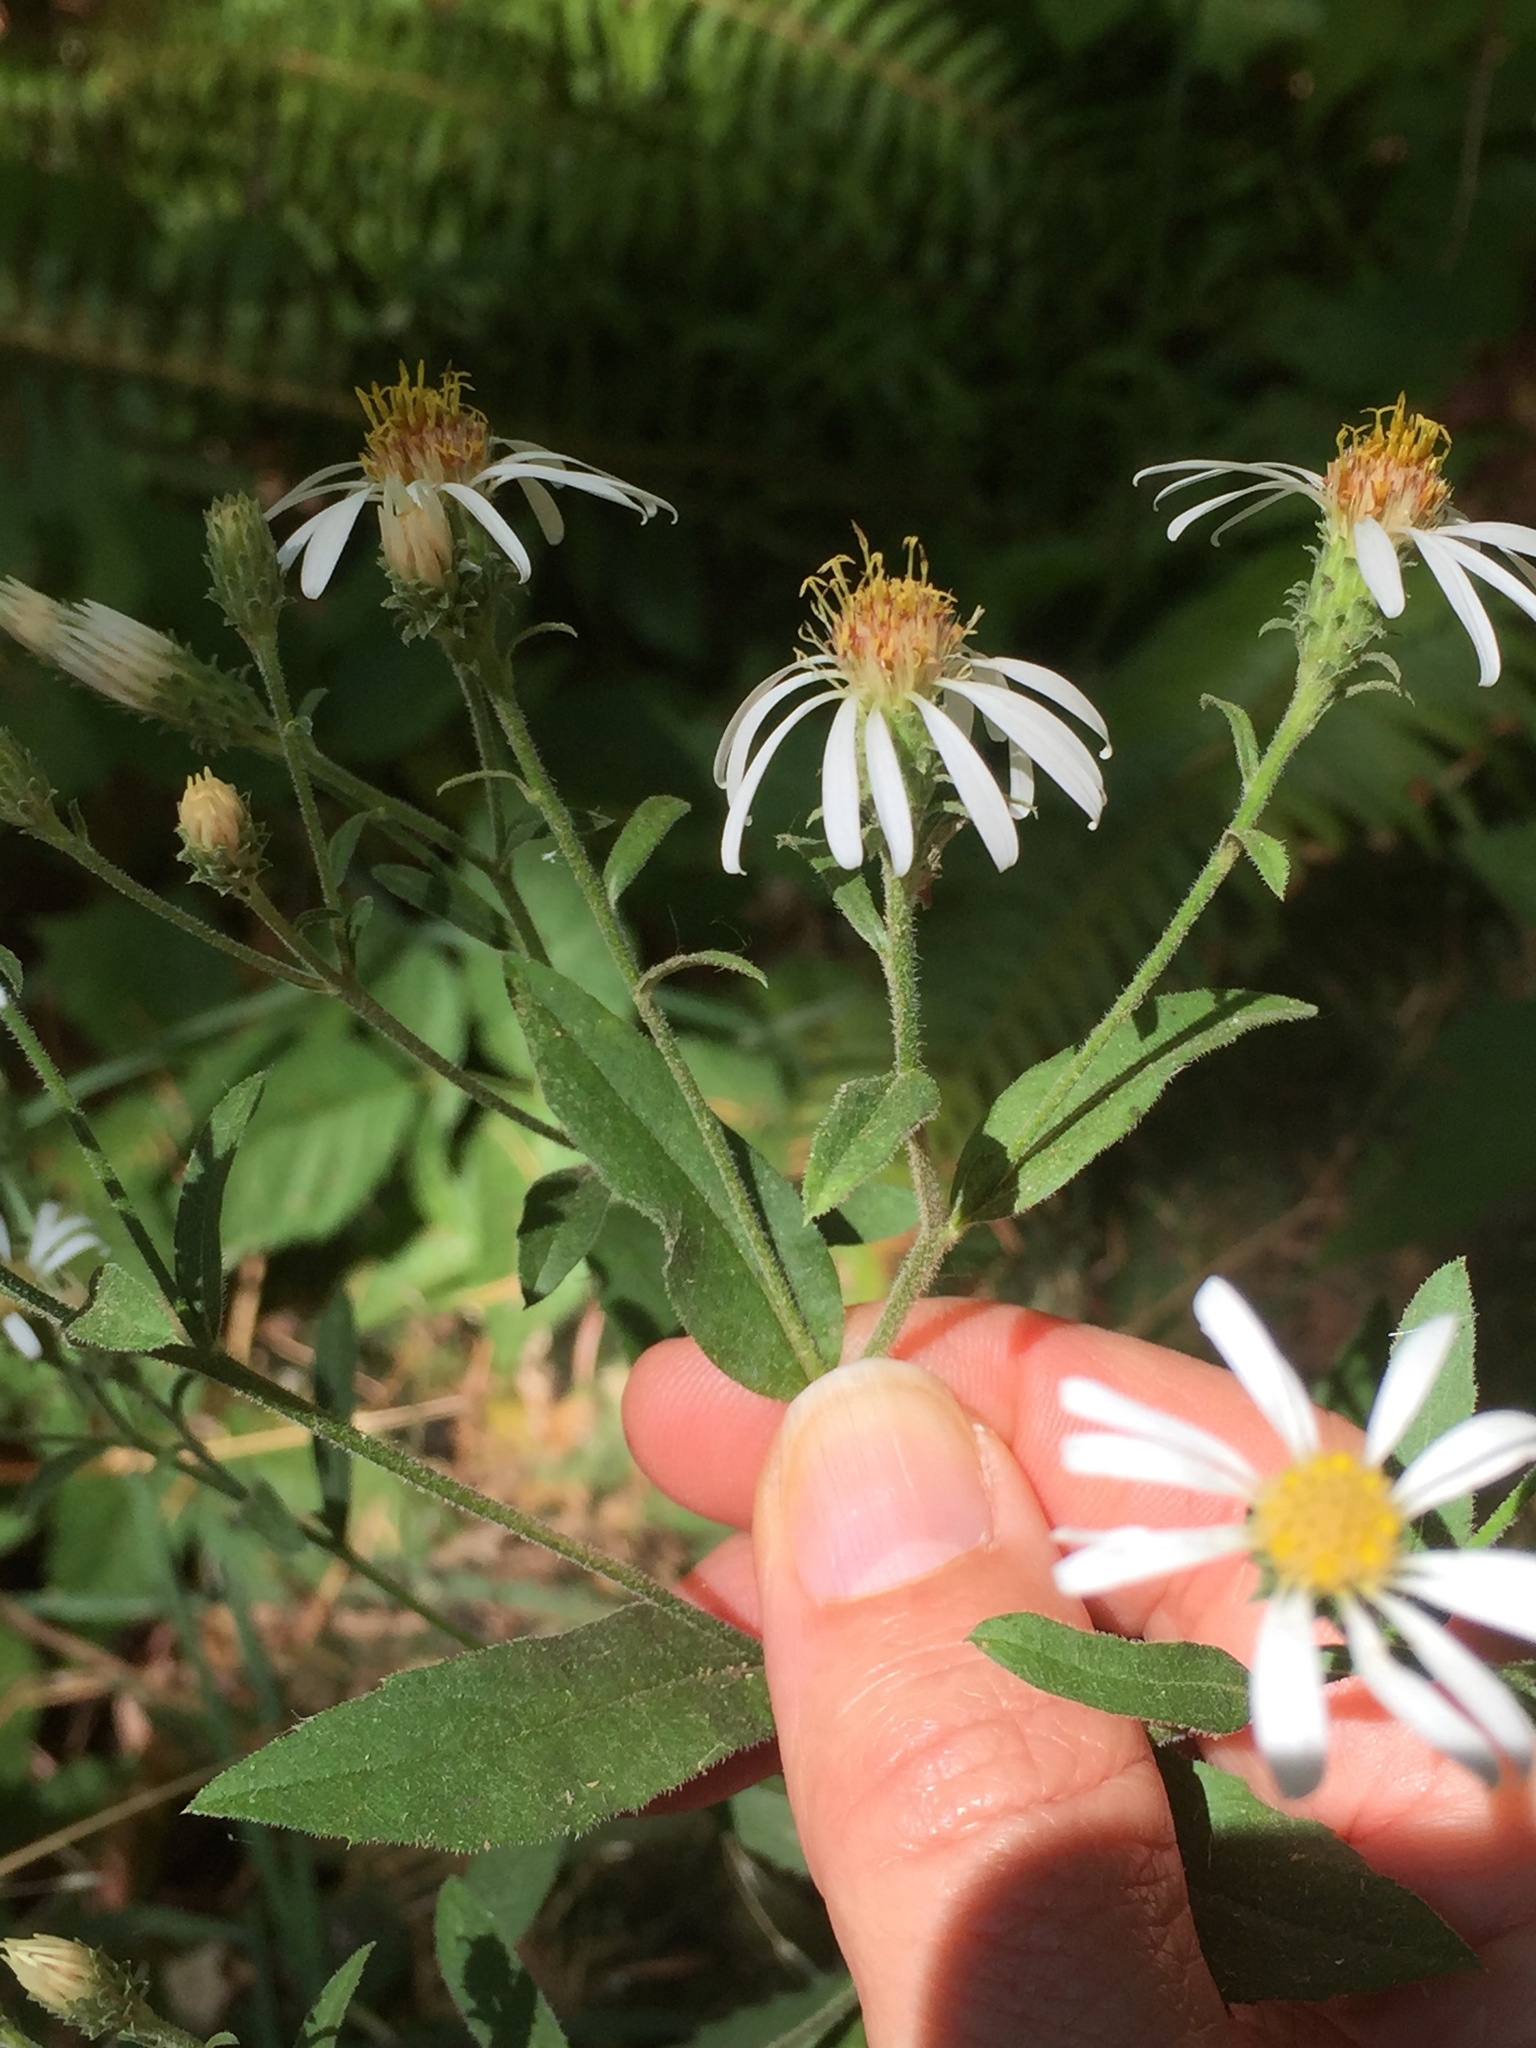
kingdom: Plantae
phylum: Tracheophyta
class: Magnoliopsida
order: Asterales
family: Asteraceae
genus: Eurybia
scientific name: Eurybia radulina
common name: Rough-leaved aster
